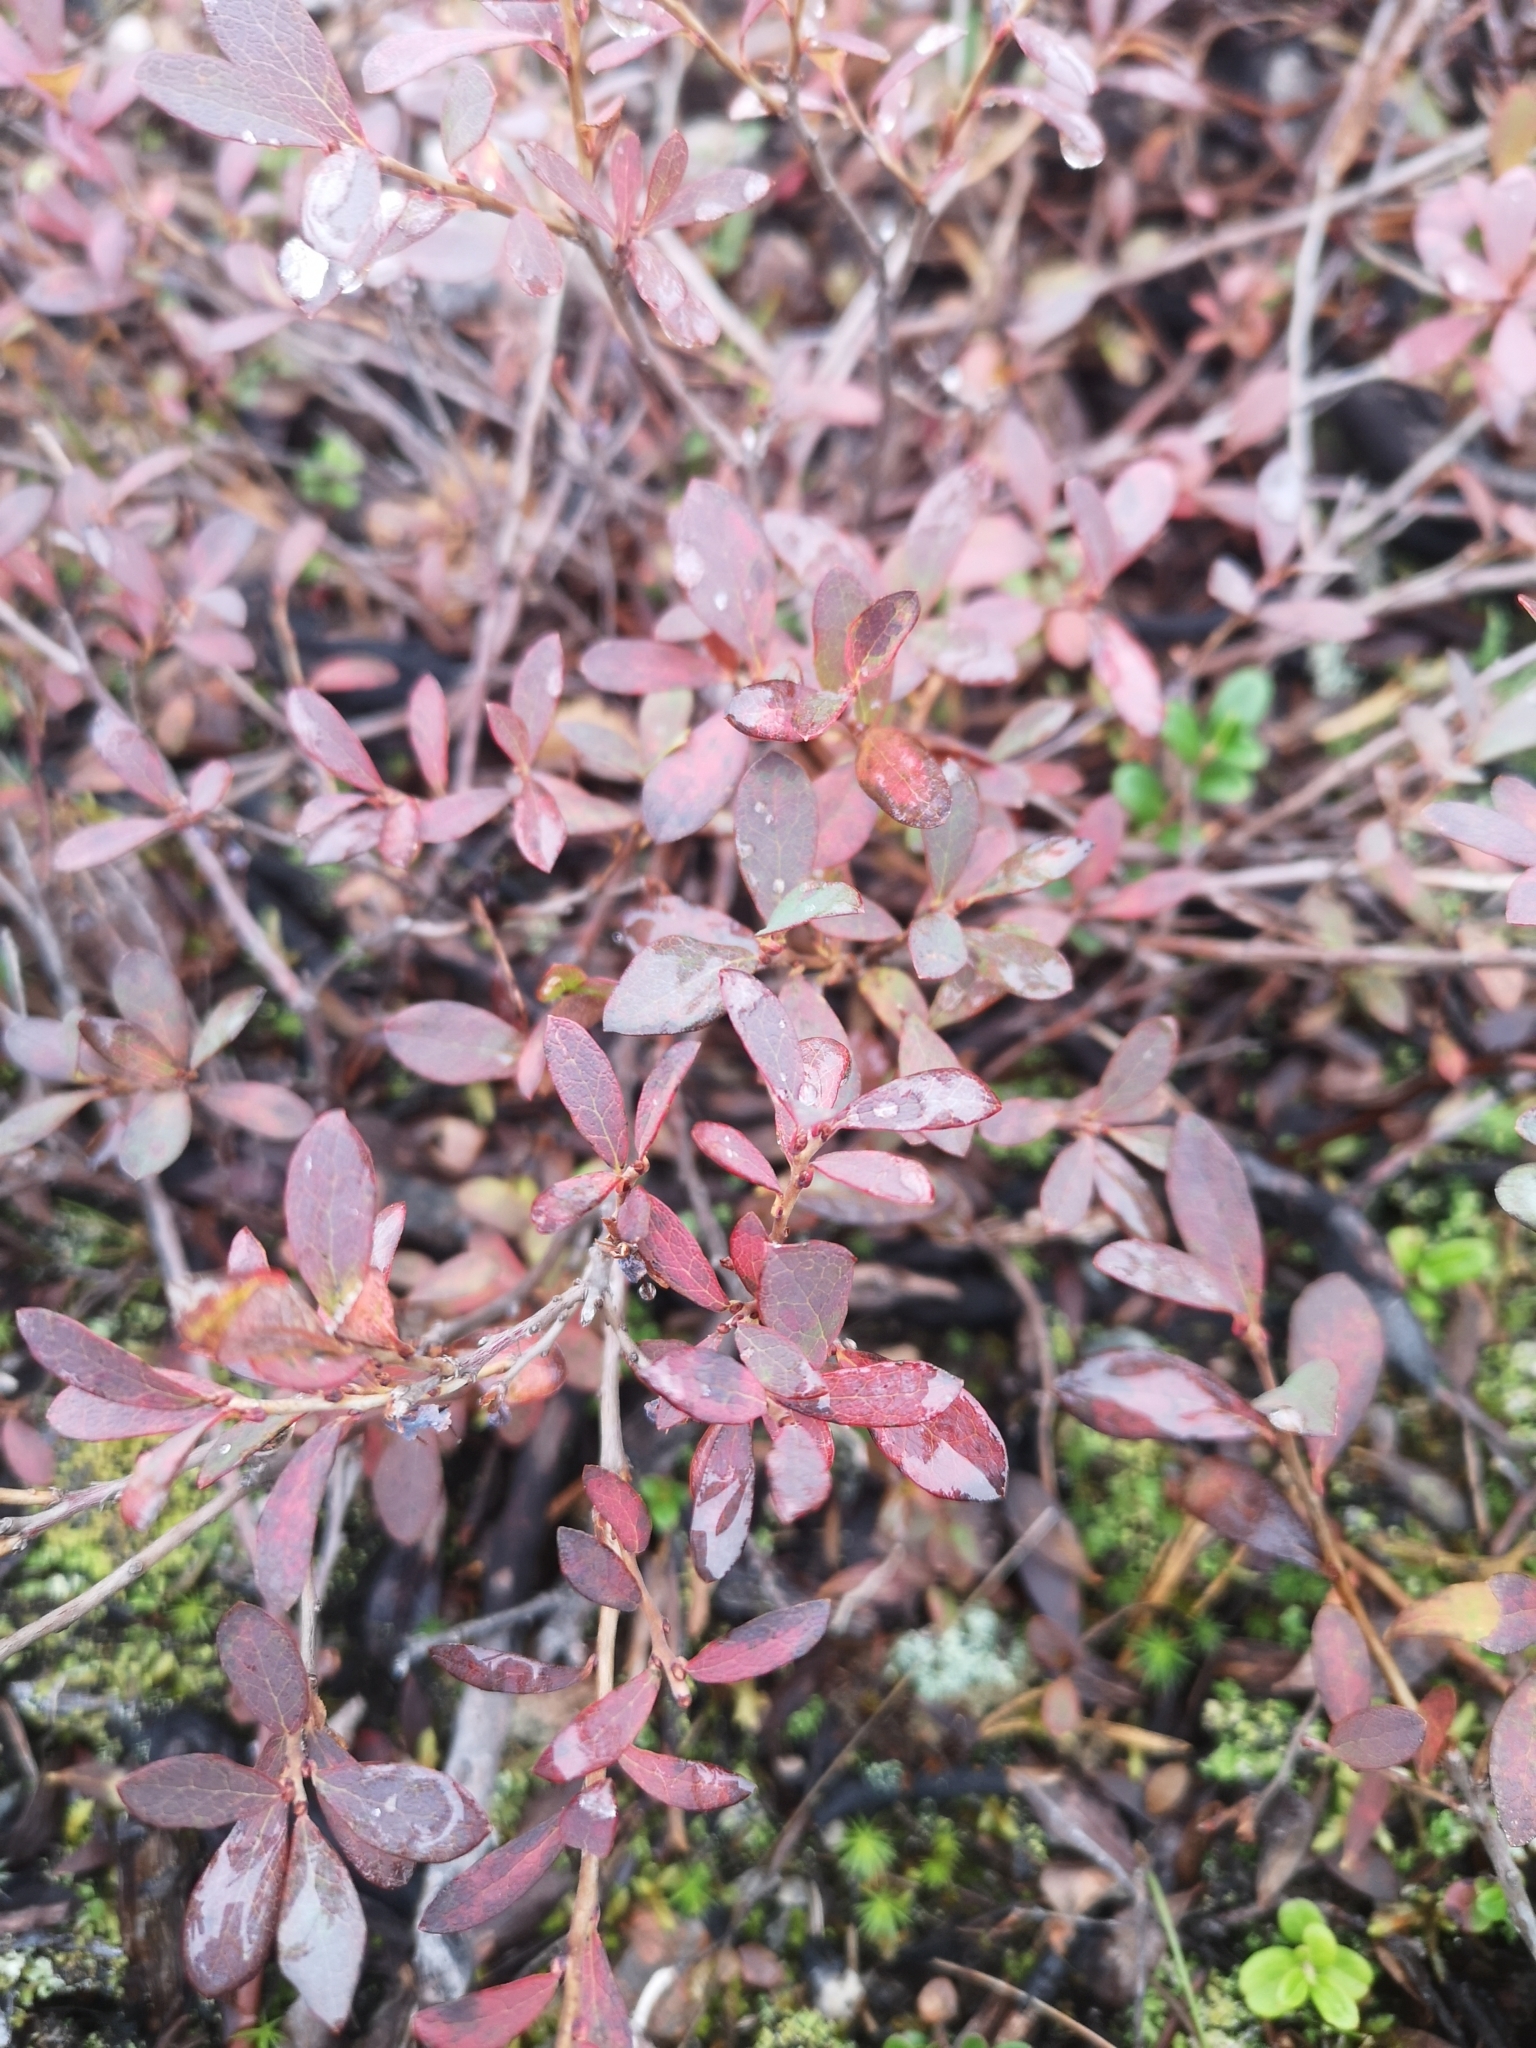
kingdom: Plantae
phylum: Tracheophyta
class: Magnoliopsida
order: Ericales
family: Ericaceae
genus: Vaccinium
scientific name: Vaccinium uliginosum
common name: Bog bilberry
